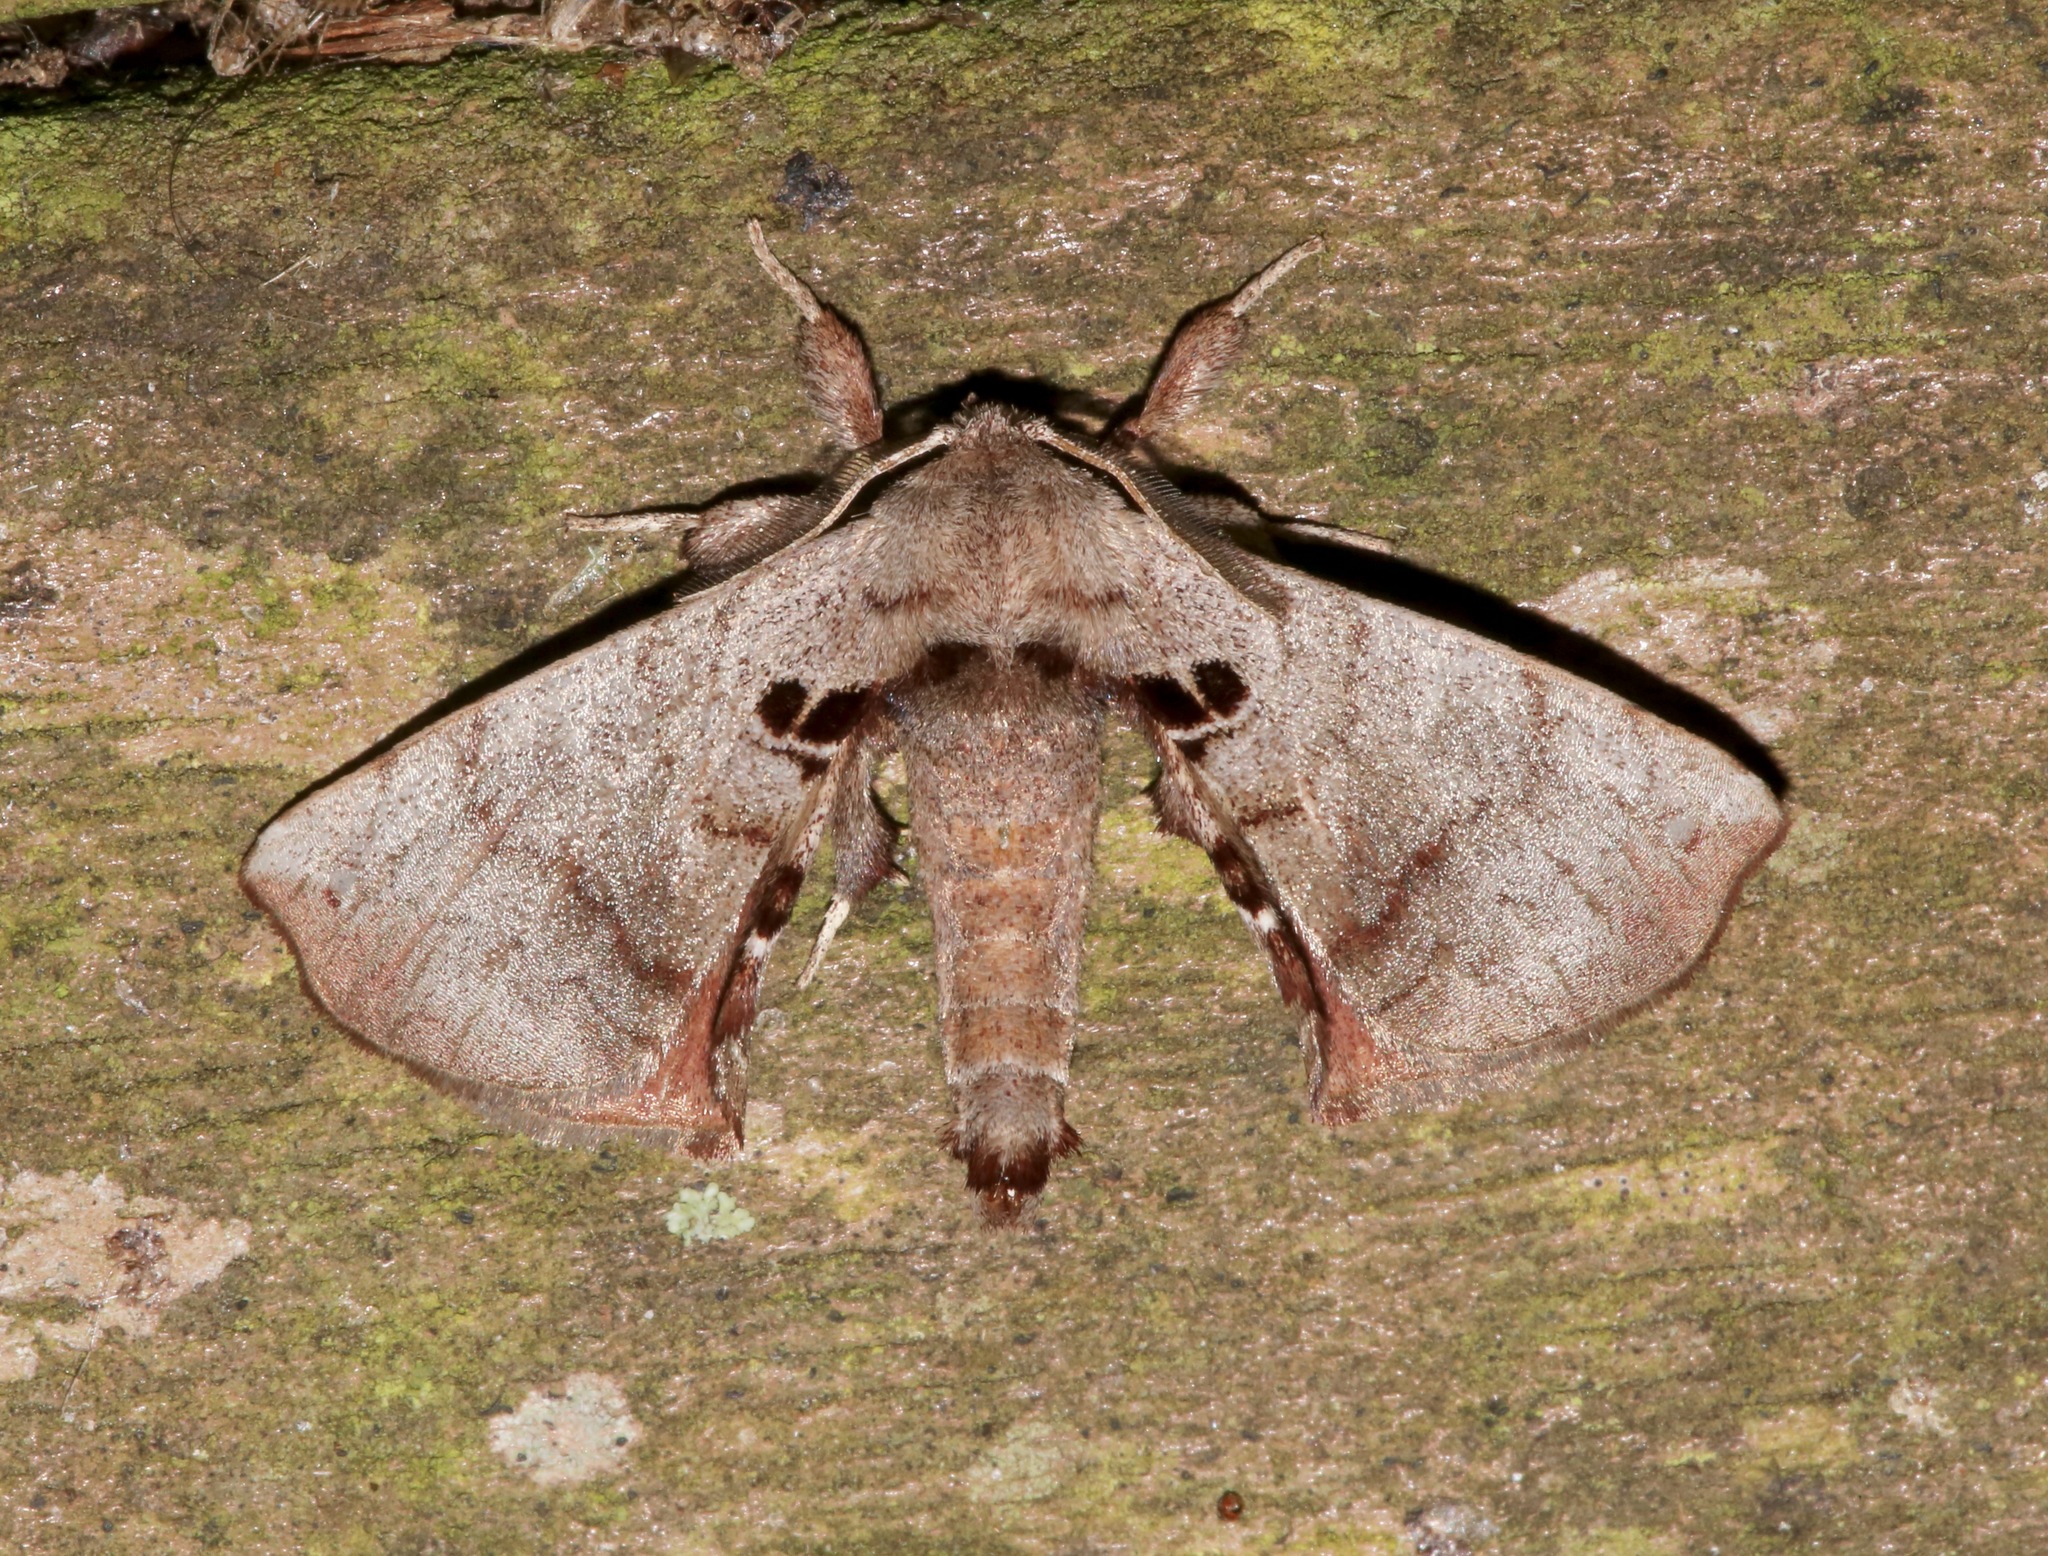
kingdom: Animalia
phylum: Arthropoda
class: Insecta
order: Lepidoptera
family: Apatelodidae
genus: Hygrochroa
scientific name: Hygrochroa Apatelodes torrefacta
